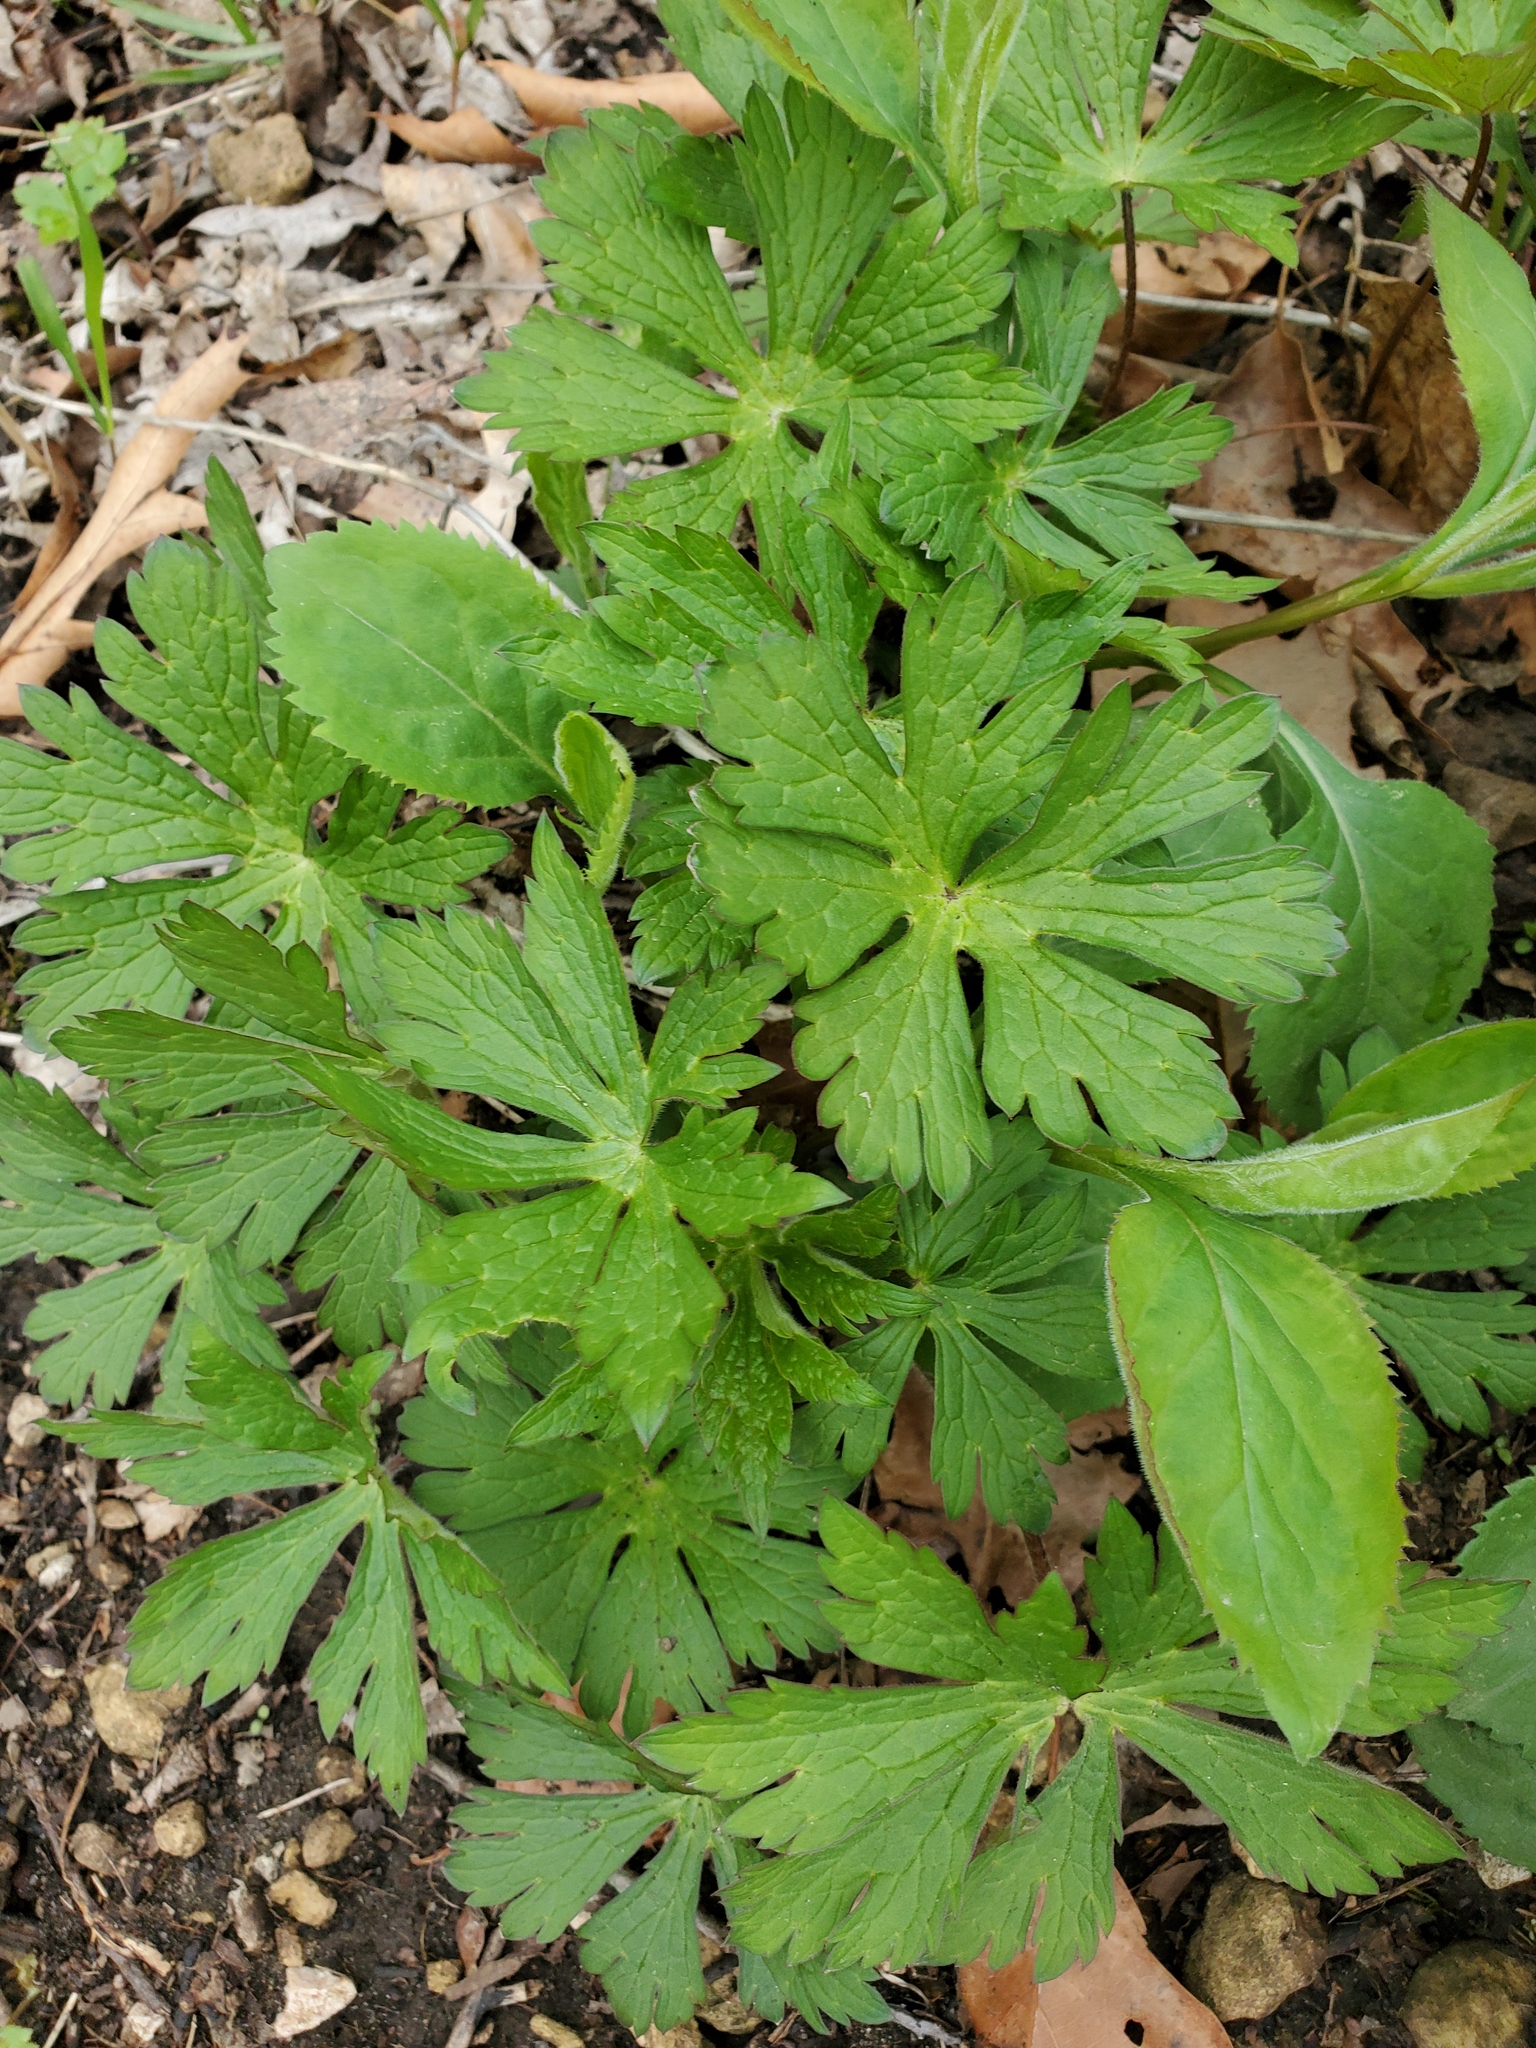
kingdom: Plantae
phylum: Tracheophyta
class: Magnoliopsida
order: Geraniales
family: Geraniaceae
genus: Geranium
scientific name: Geranium maculatum
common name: Spotted geranium
